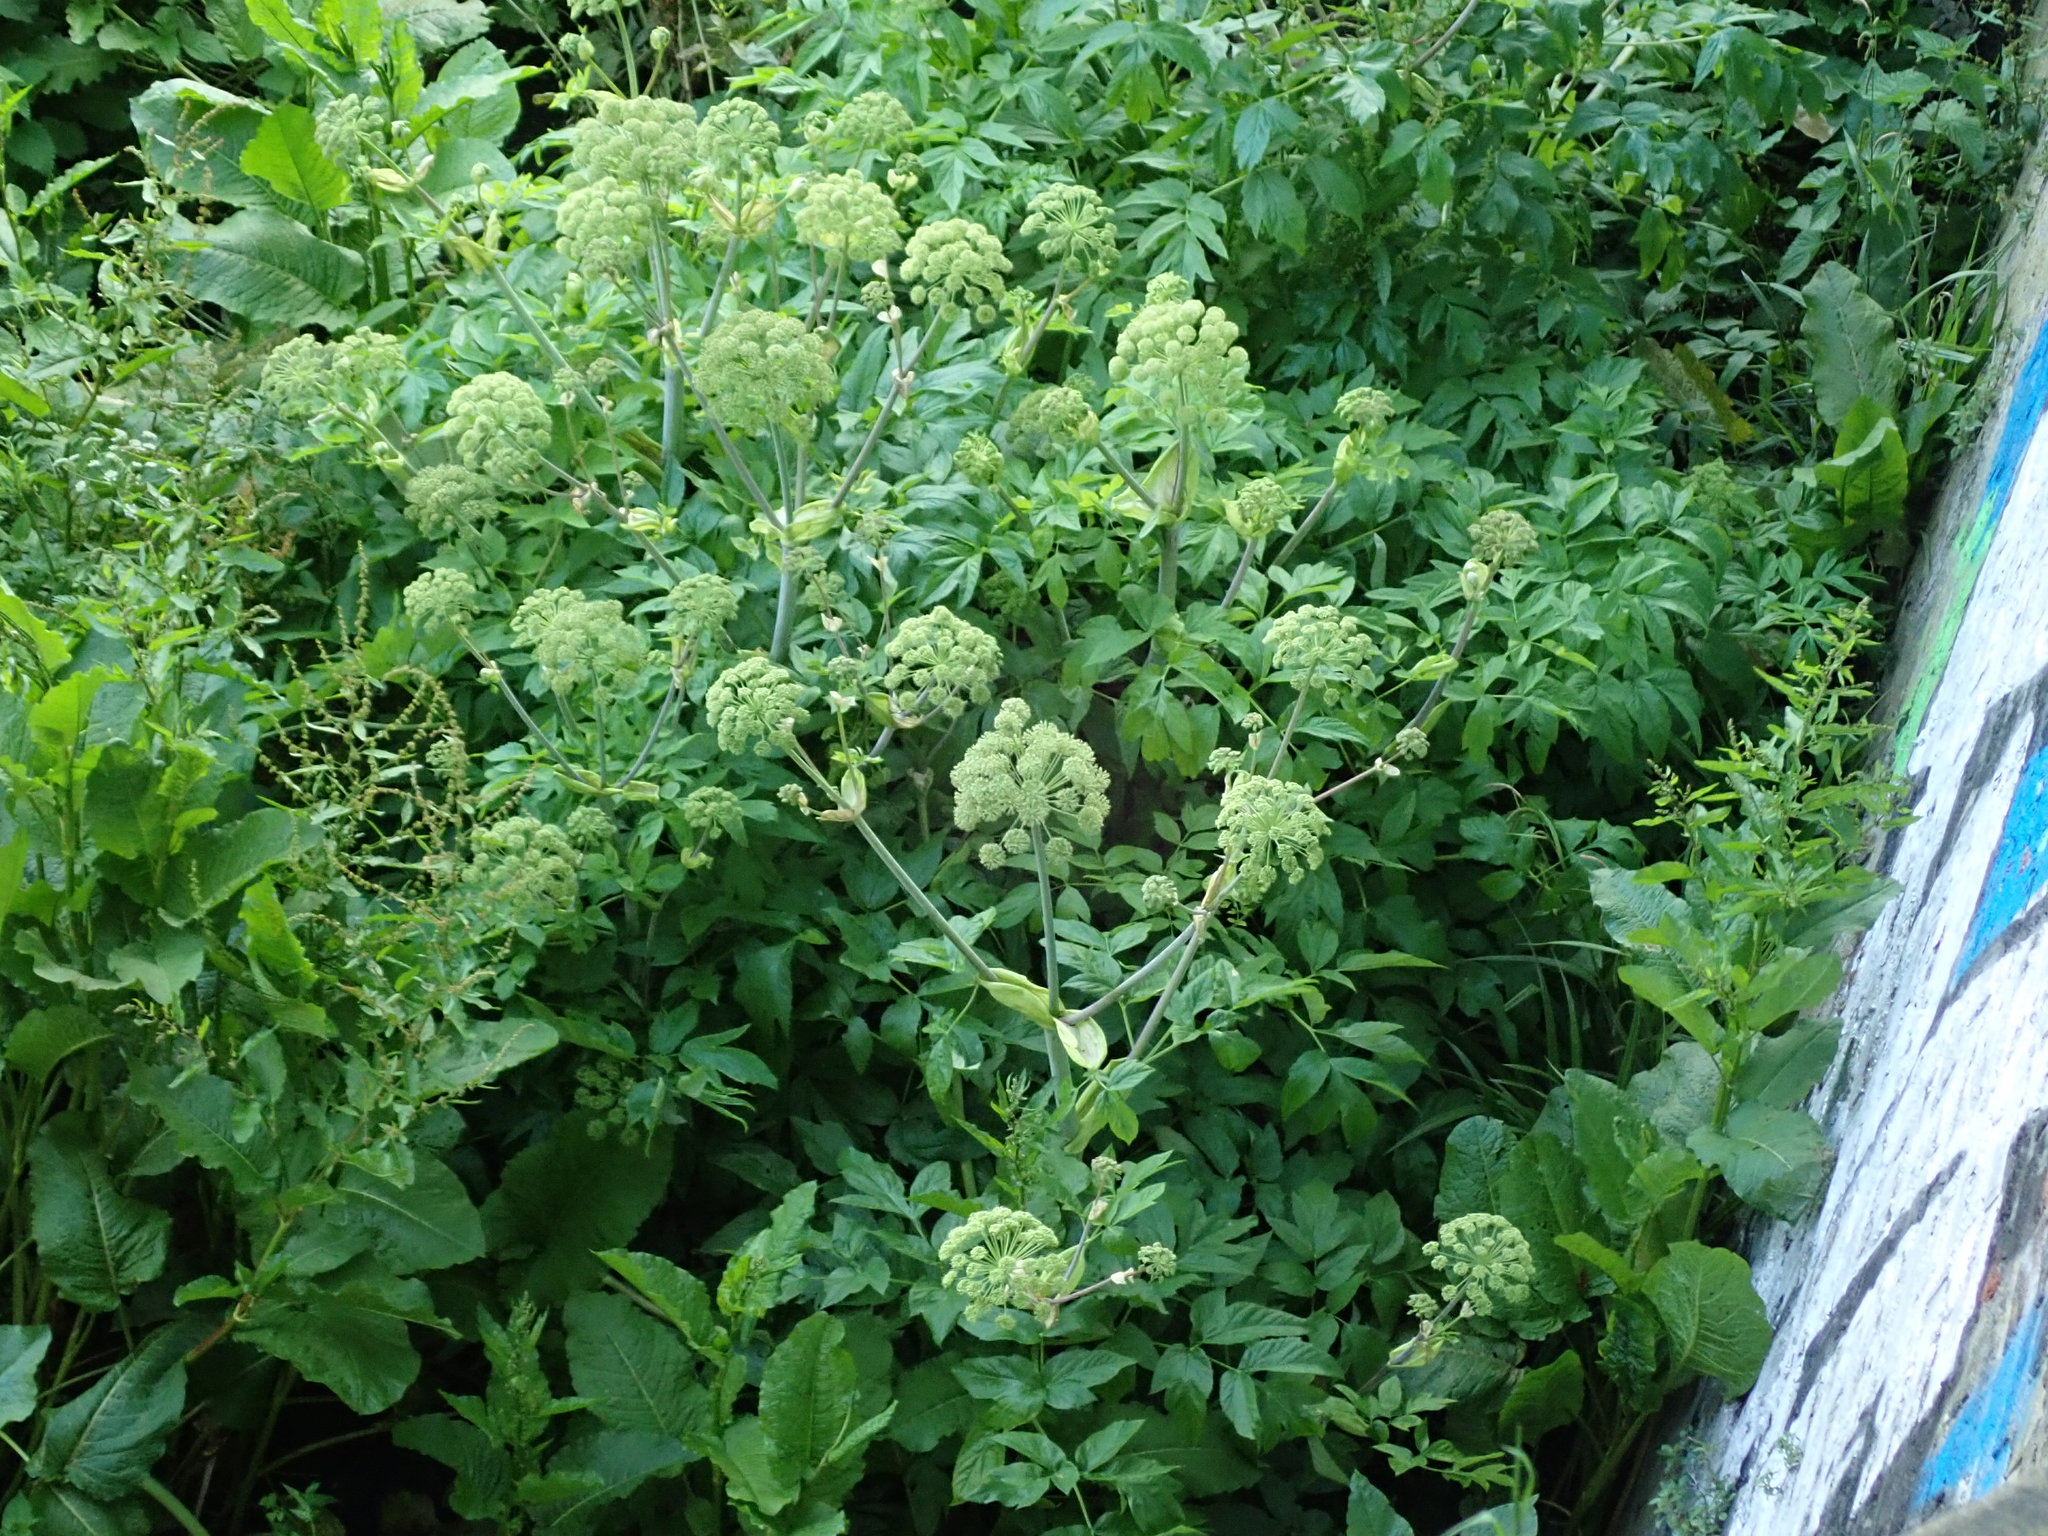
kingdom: Plantae
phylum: Tracheophyta
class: Magnoliopsida
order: Apiales
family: Apiaceae
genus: Angelica
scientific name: Angelica archangelica
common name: Garden angelica
